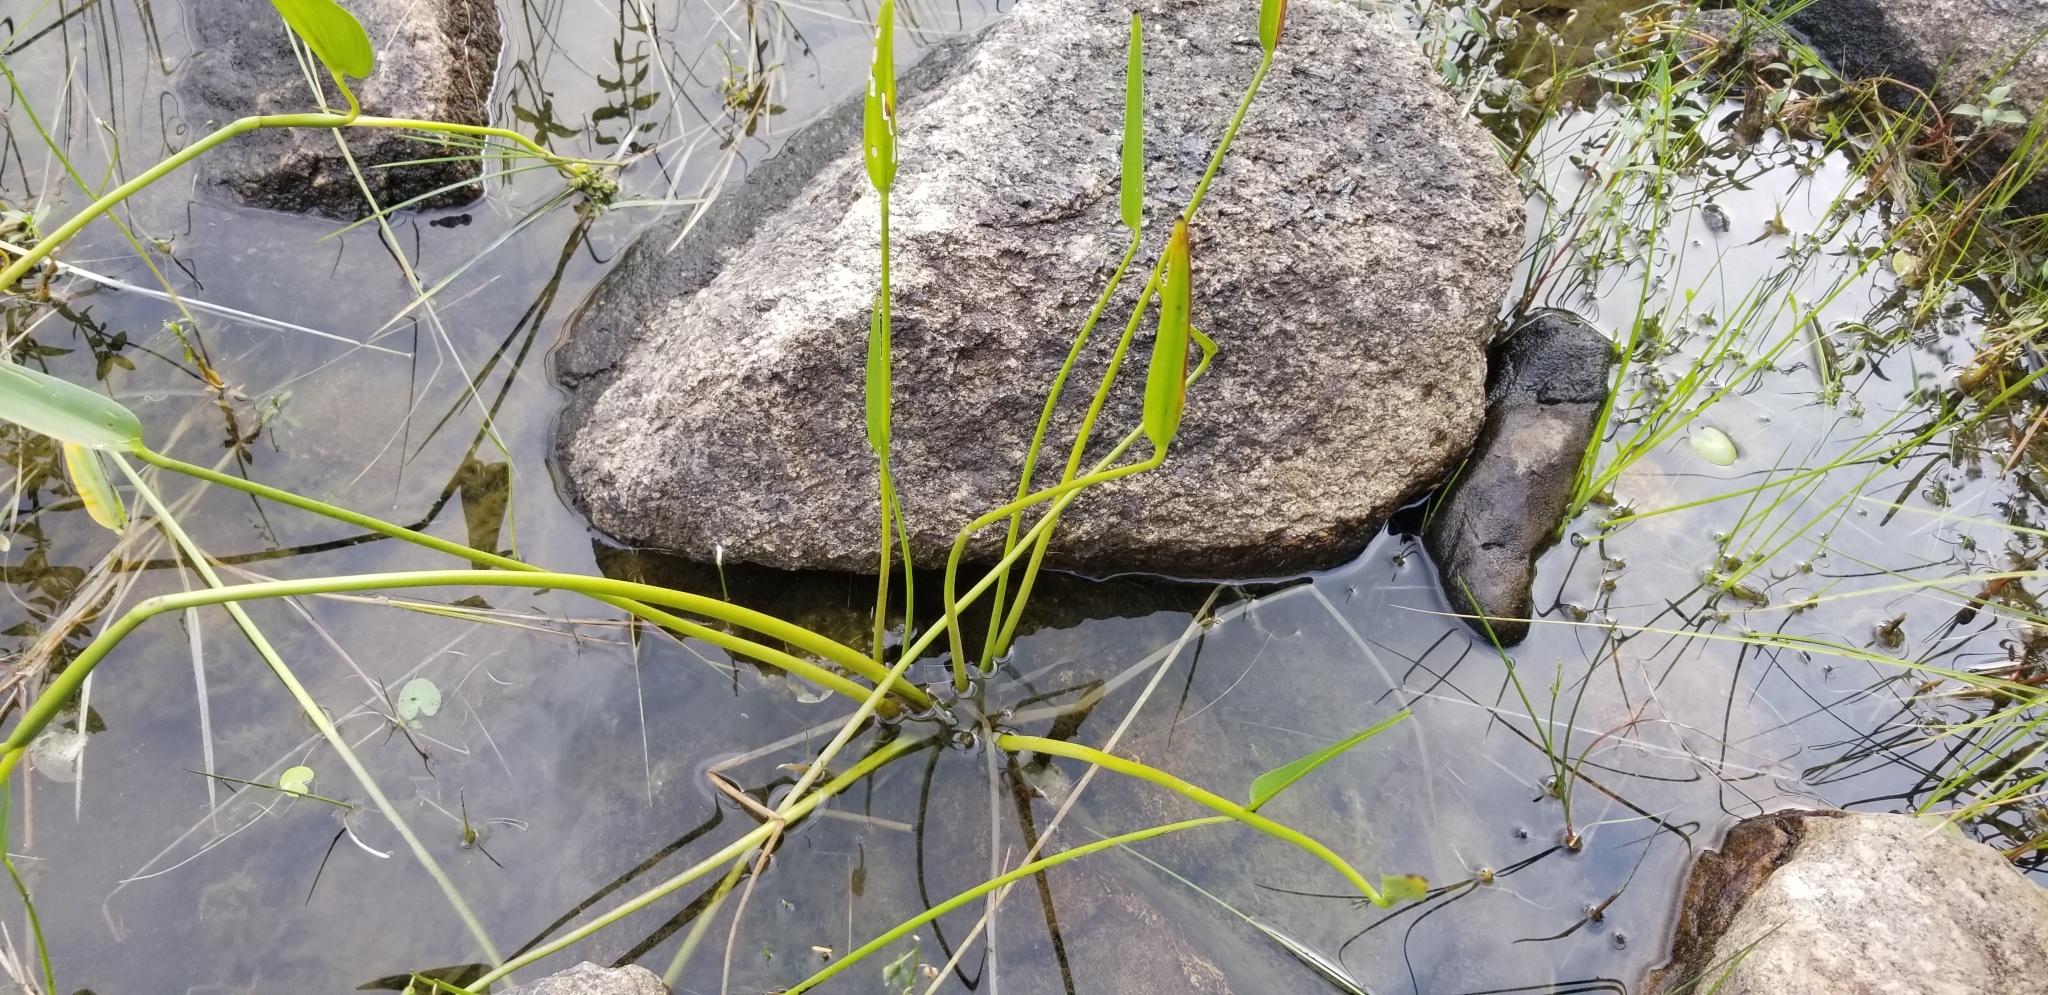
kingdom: Plantae
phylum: Tracheophyta
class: Liliopsida
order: Commelinales
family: Pontederiaceae
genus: Pontederia
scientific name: Pontederia cordata
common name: Pickerelweed
